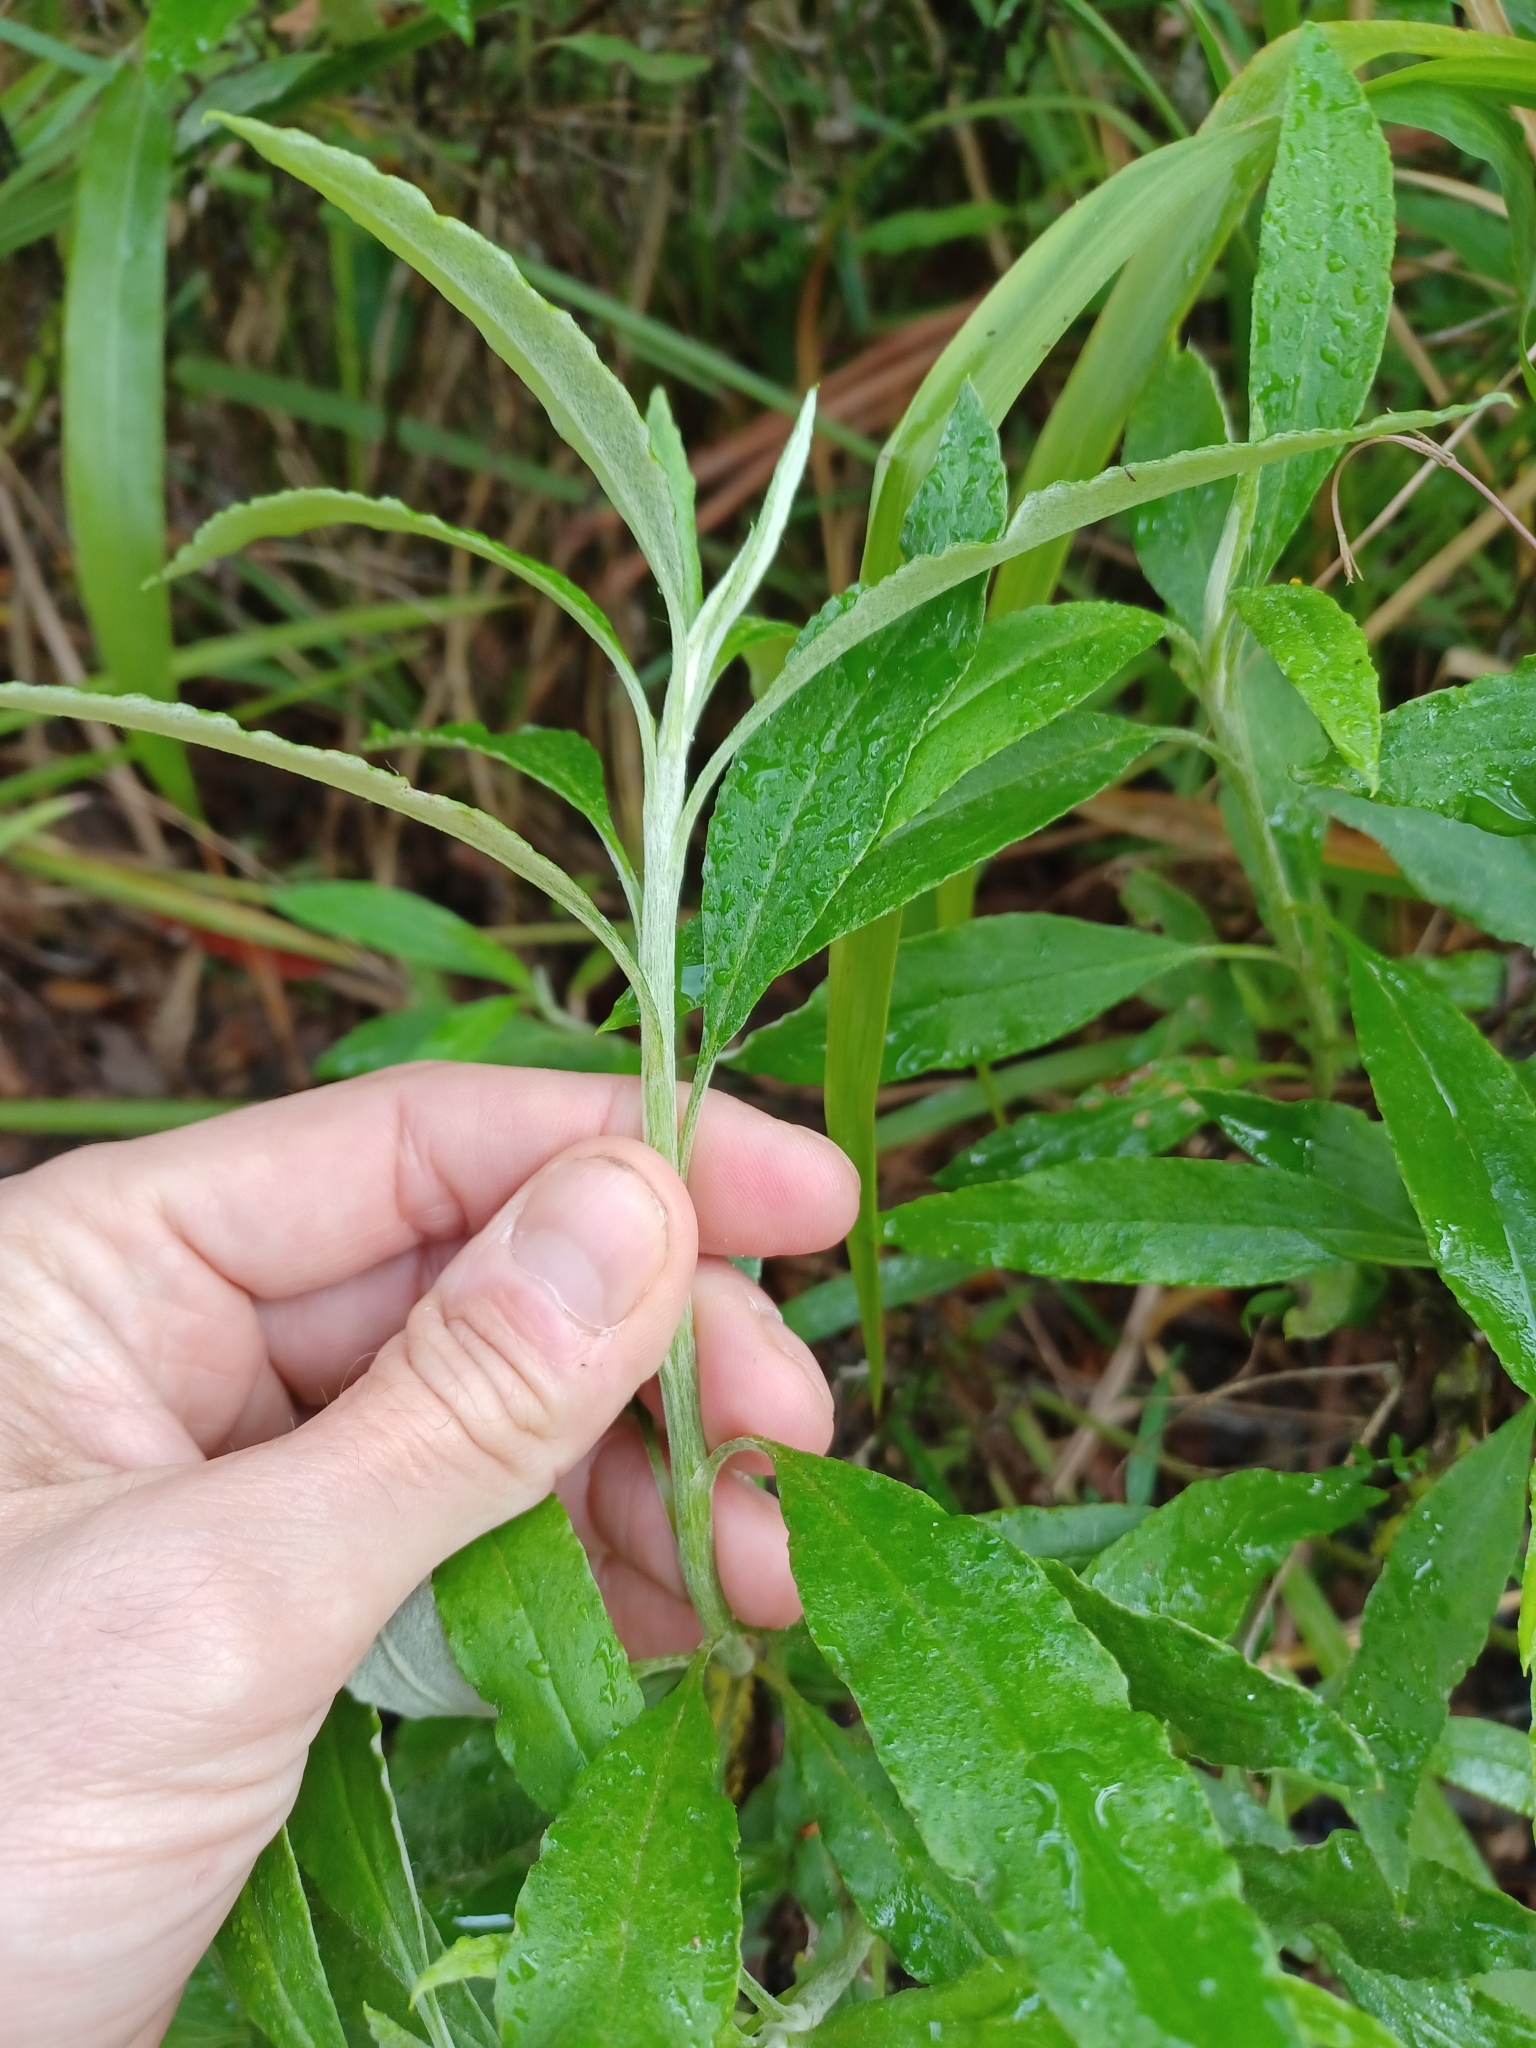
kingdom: Plantae
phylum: Tracheophyta
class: Magnoliopsida
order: Asterales
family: Asteraceae
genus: Leucozoma
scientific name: Leucozoma elatum
